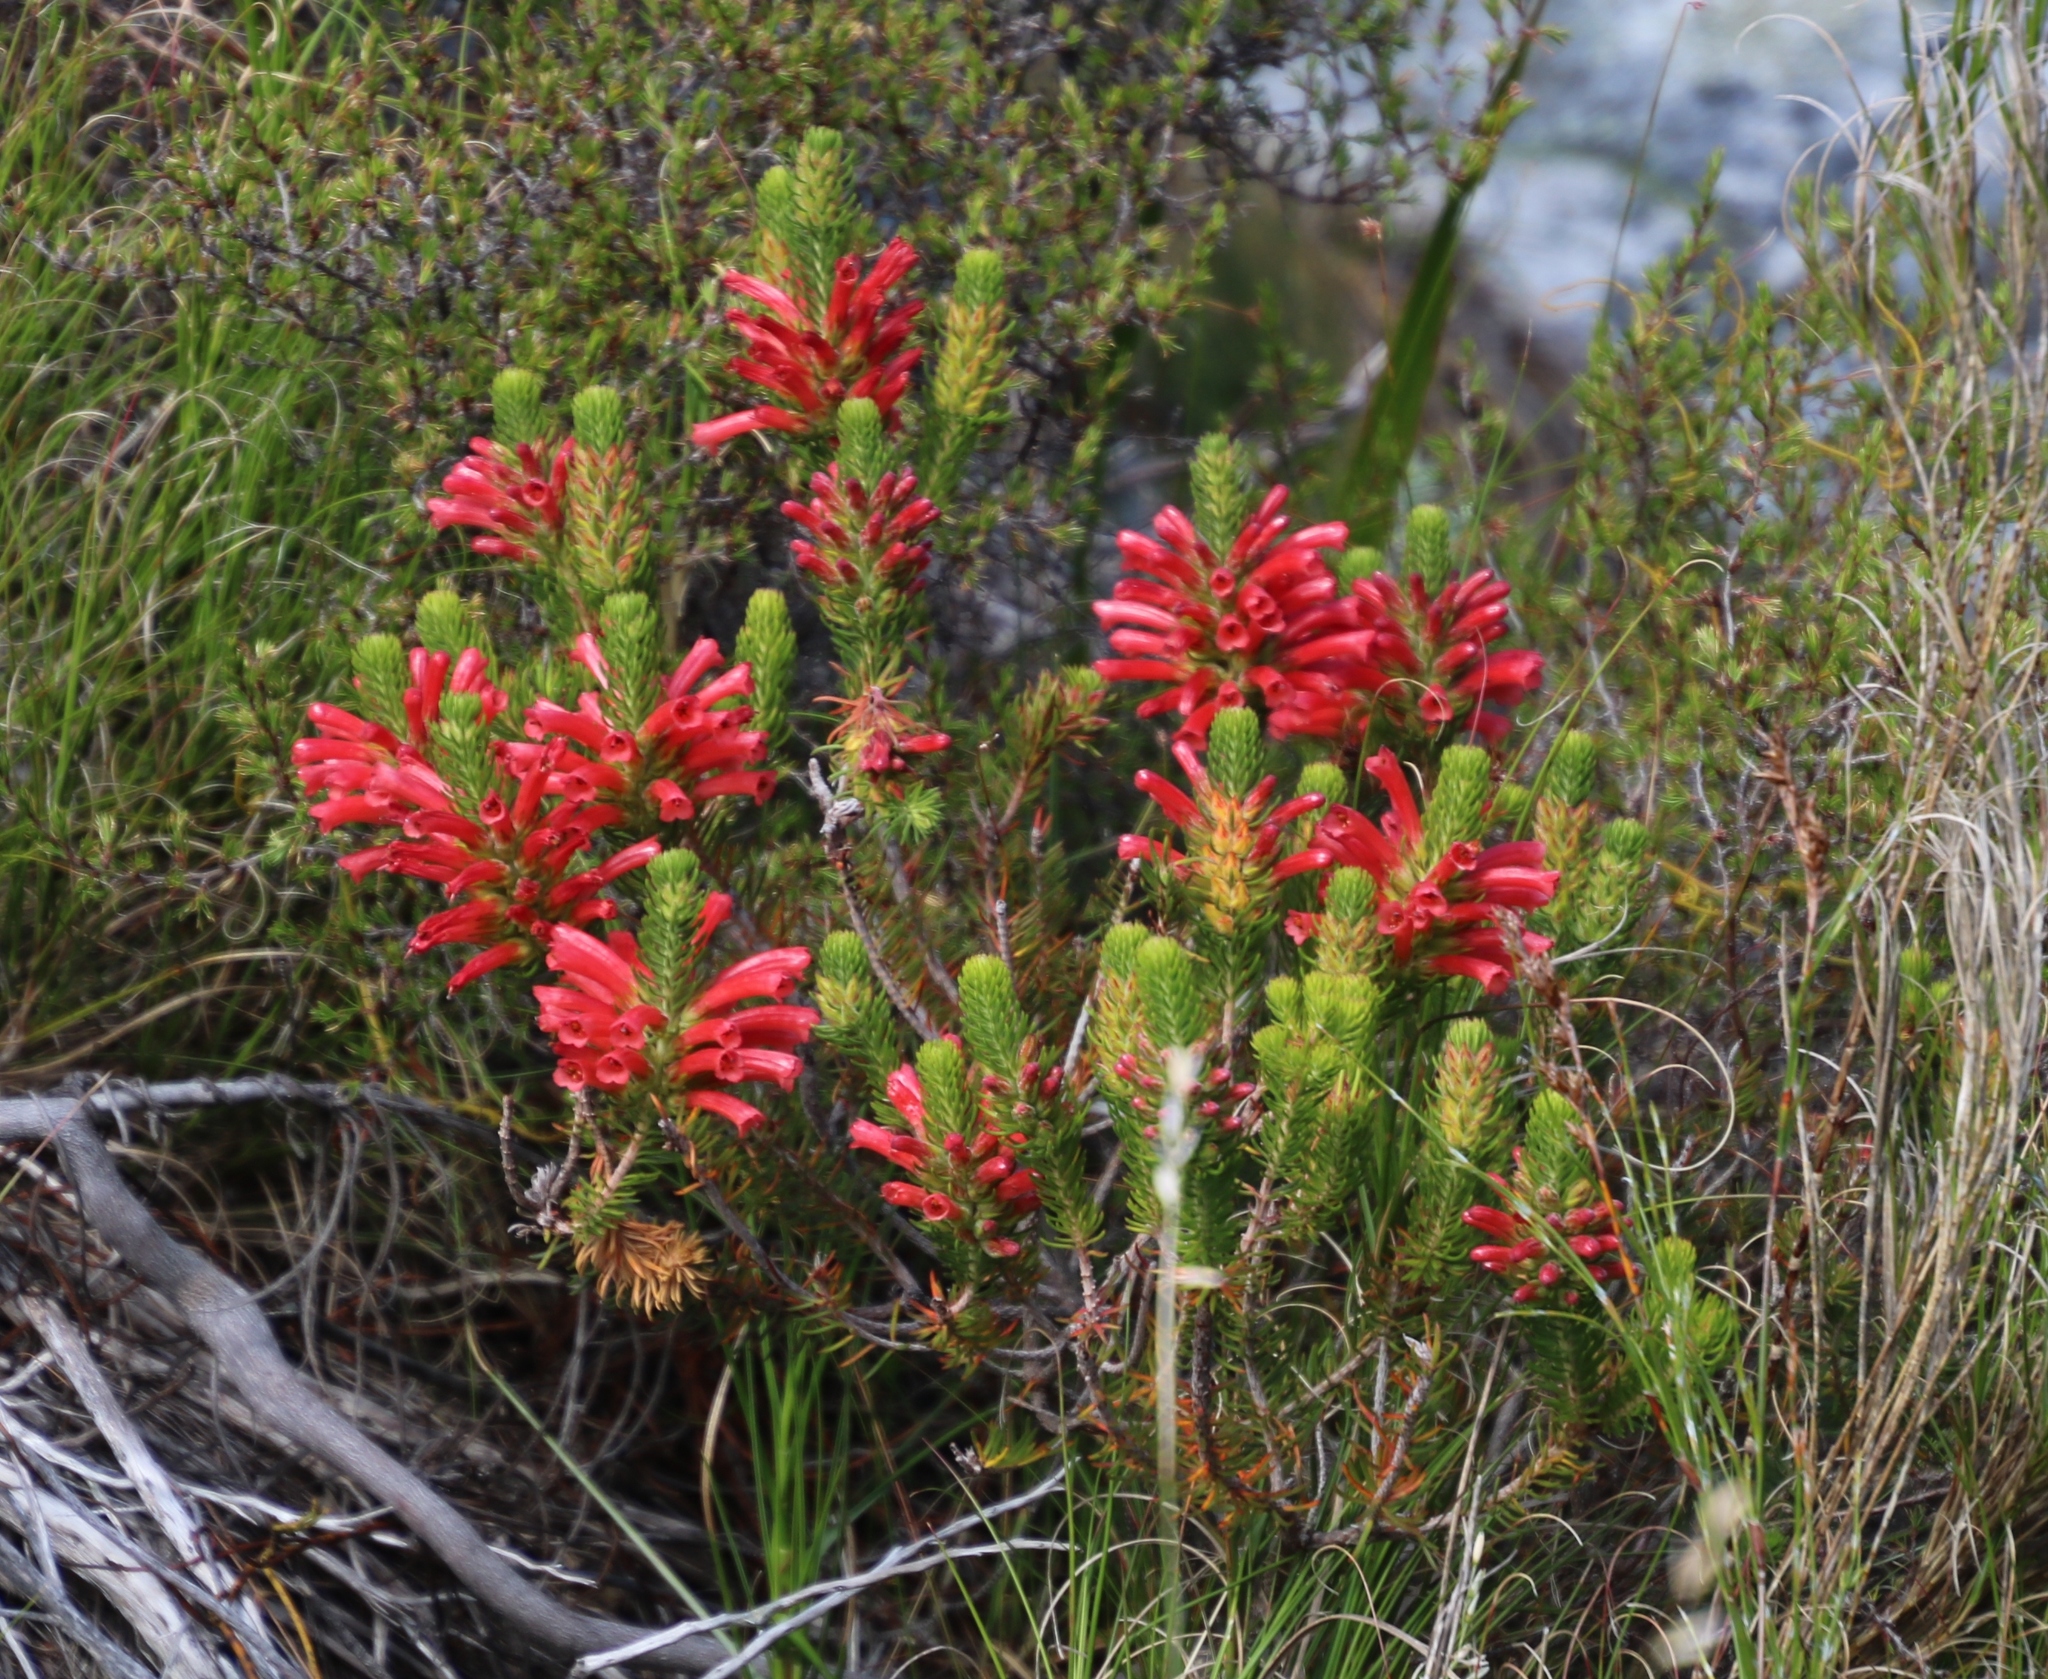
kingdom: Plantae
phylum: Tracheophyta
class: Magnoliopsida
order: Ericales
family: Ericaceae
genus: Erica
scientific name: Erica abietina
